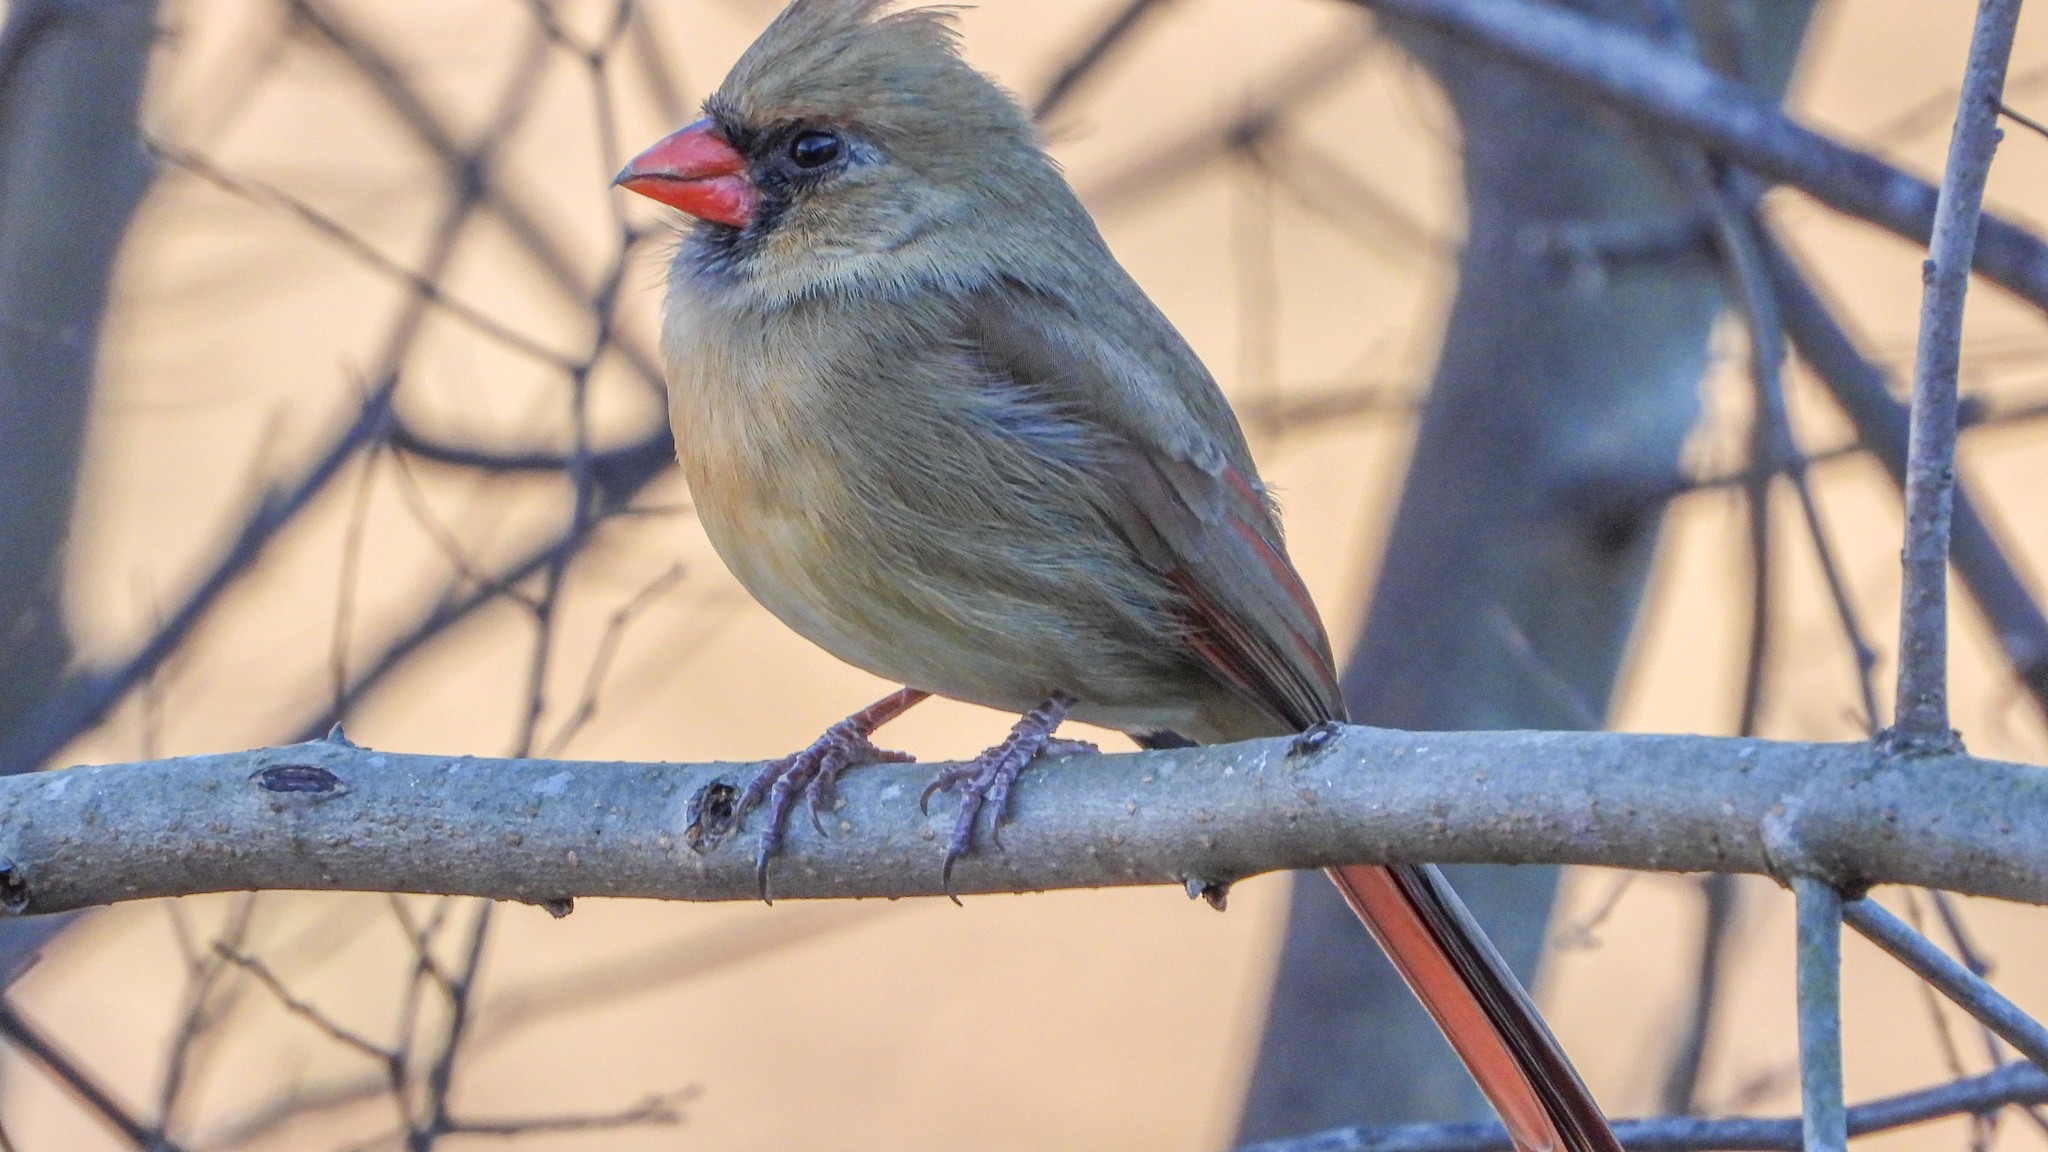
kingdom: Animalia
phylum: Chordata
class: Aves
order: Passeriformes
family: Cardinalidae
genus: Cardinalis
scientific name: Cardinalis cardinalis
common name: Northern cardinal
